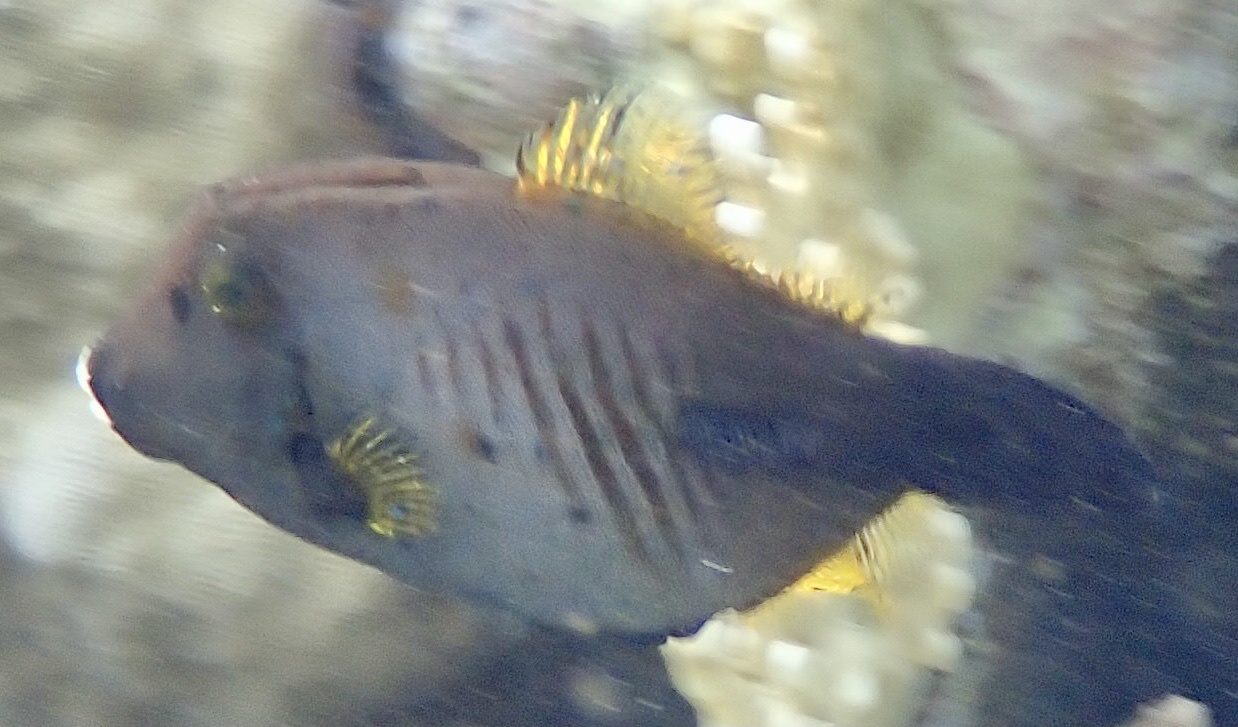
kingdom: Animalia
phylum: Chordata
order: Tetraodontiformes
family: Monacanthidae
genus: Amanses
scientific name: Amanses scopas
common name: Broom filefish
